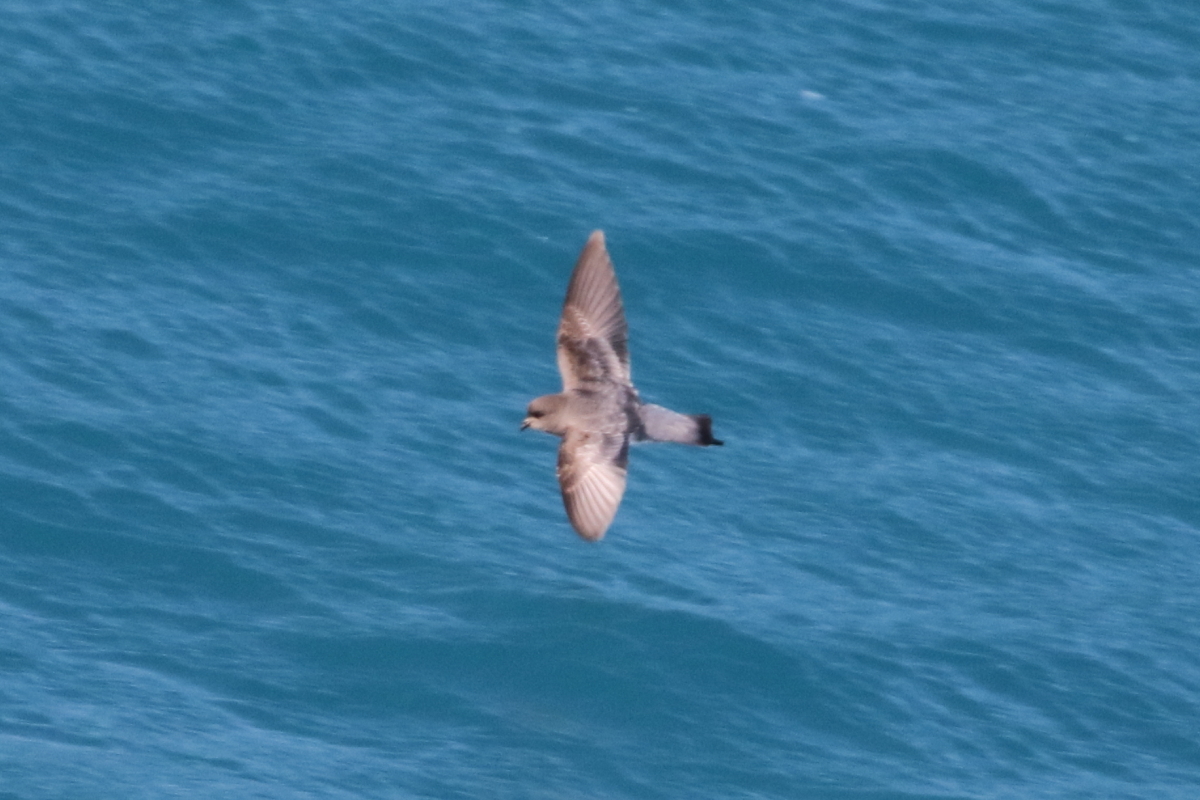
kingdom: Animalia
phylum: Chordata
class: Aves
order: Procellariiformes
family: Hydrobatidae
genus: Garrodia
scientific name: Garrodia nereis
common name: Grey-backed storm petrel
